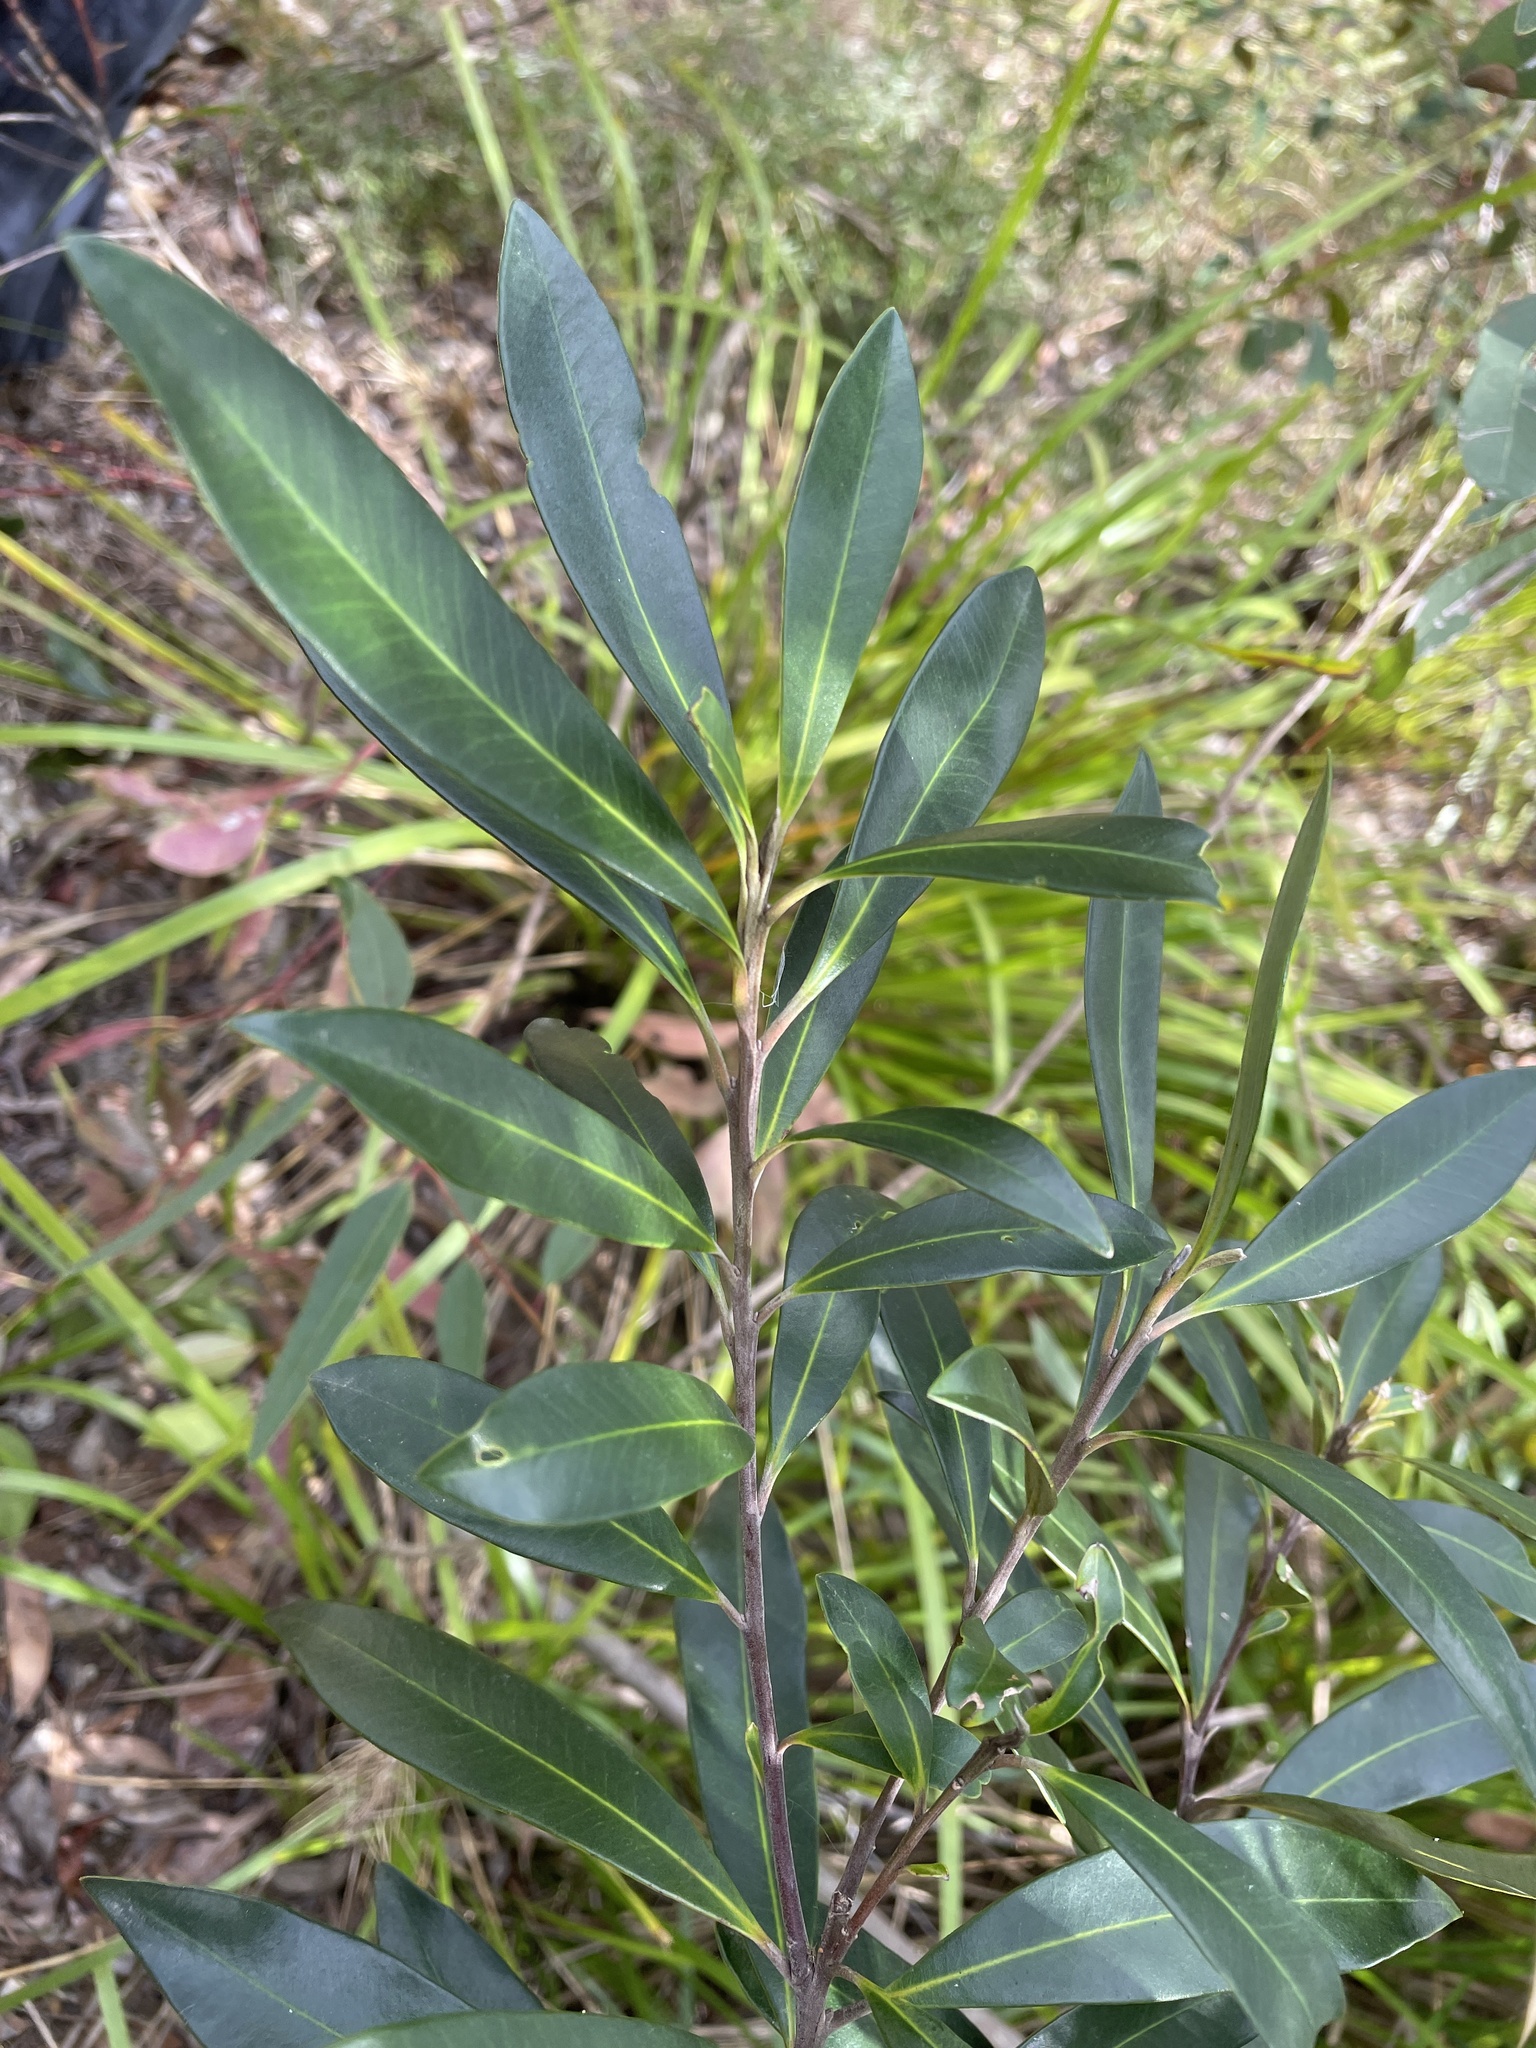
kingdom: Plantae
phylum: Tracheophyta
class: Magnoliopsida
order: Myrtales
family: Myrtaceae
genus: Tristaniopsis
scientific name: Tristaniopsis laurina
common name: Water-gum
